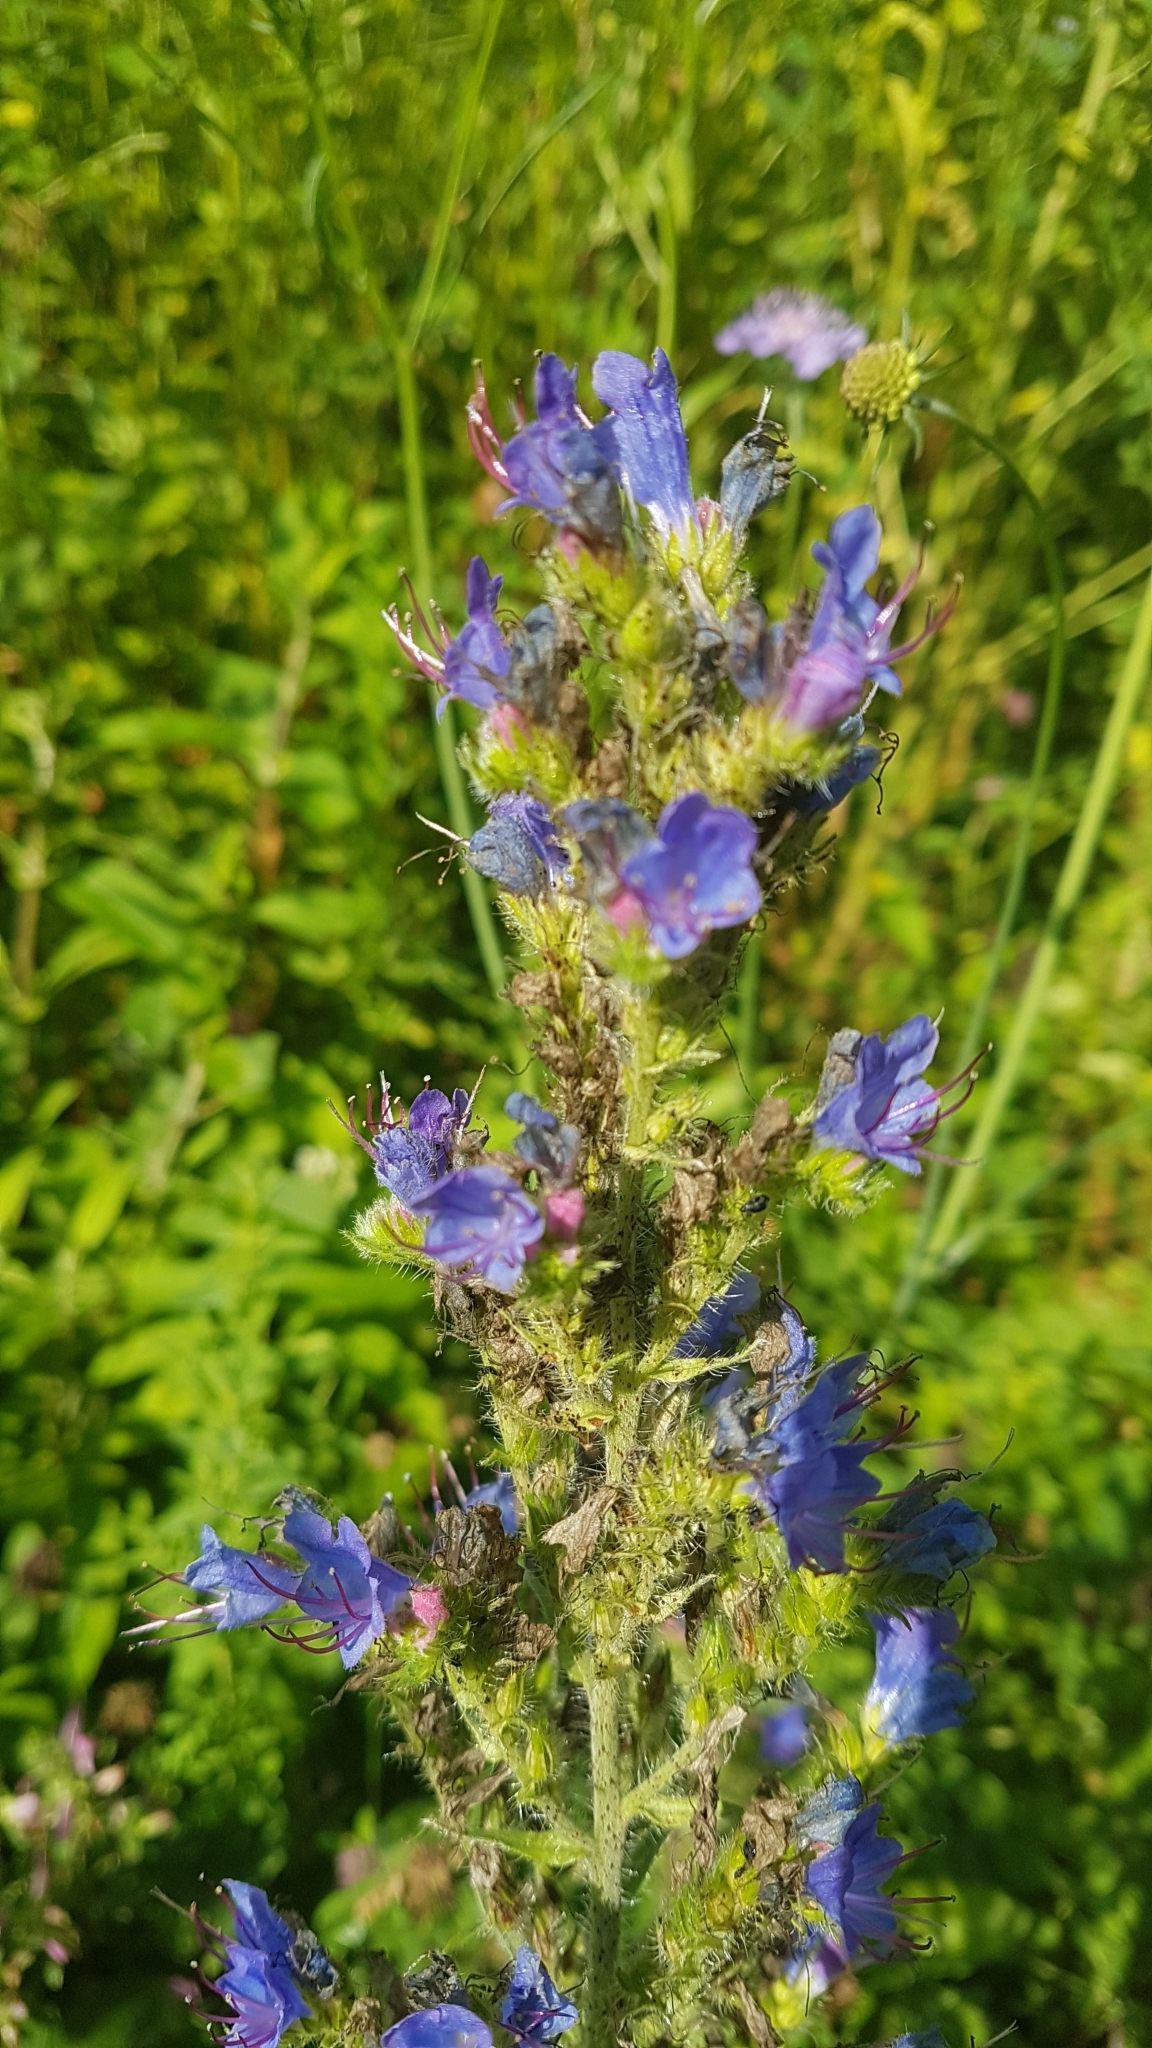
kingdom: Plantae
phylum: Tracheophyta
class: Magnoliopsida
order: Boraginales
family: Boraginaceae
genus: Echium
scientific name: Echium vulgare
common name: Common viper's bugloss
